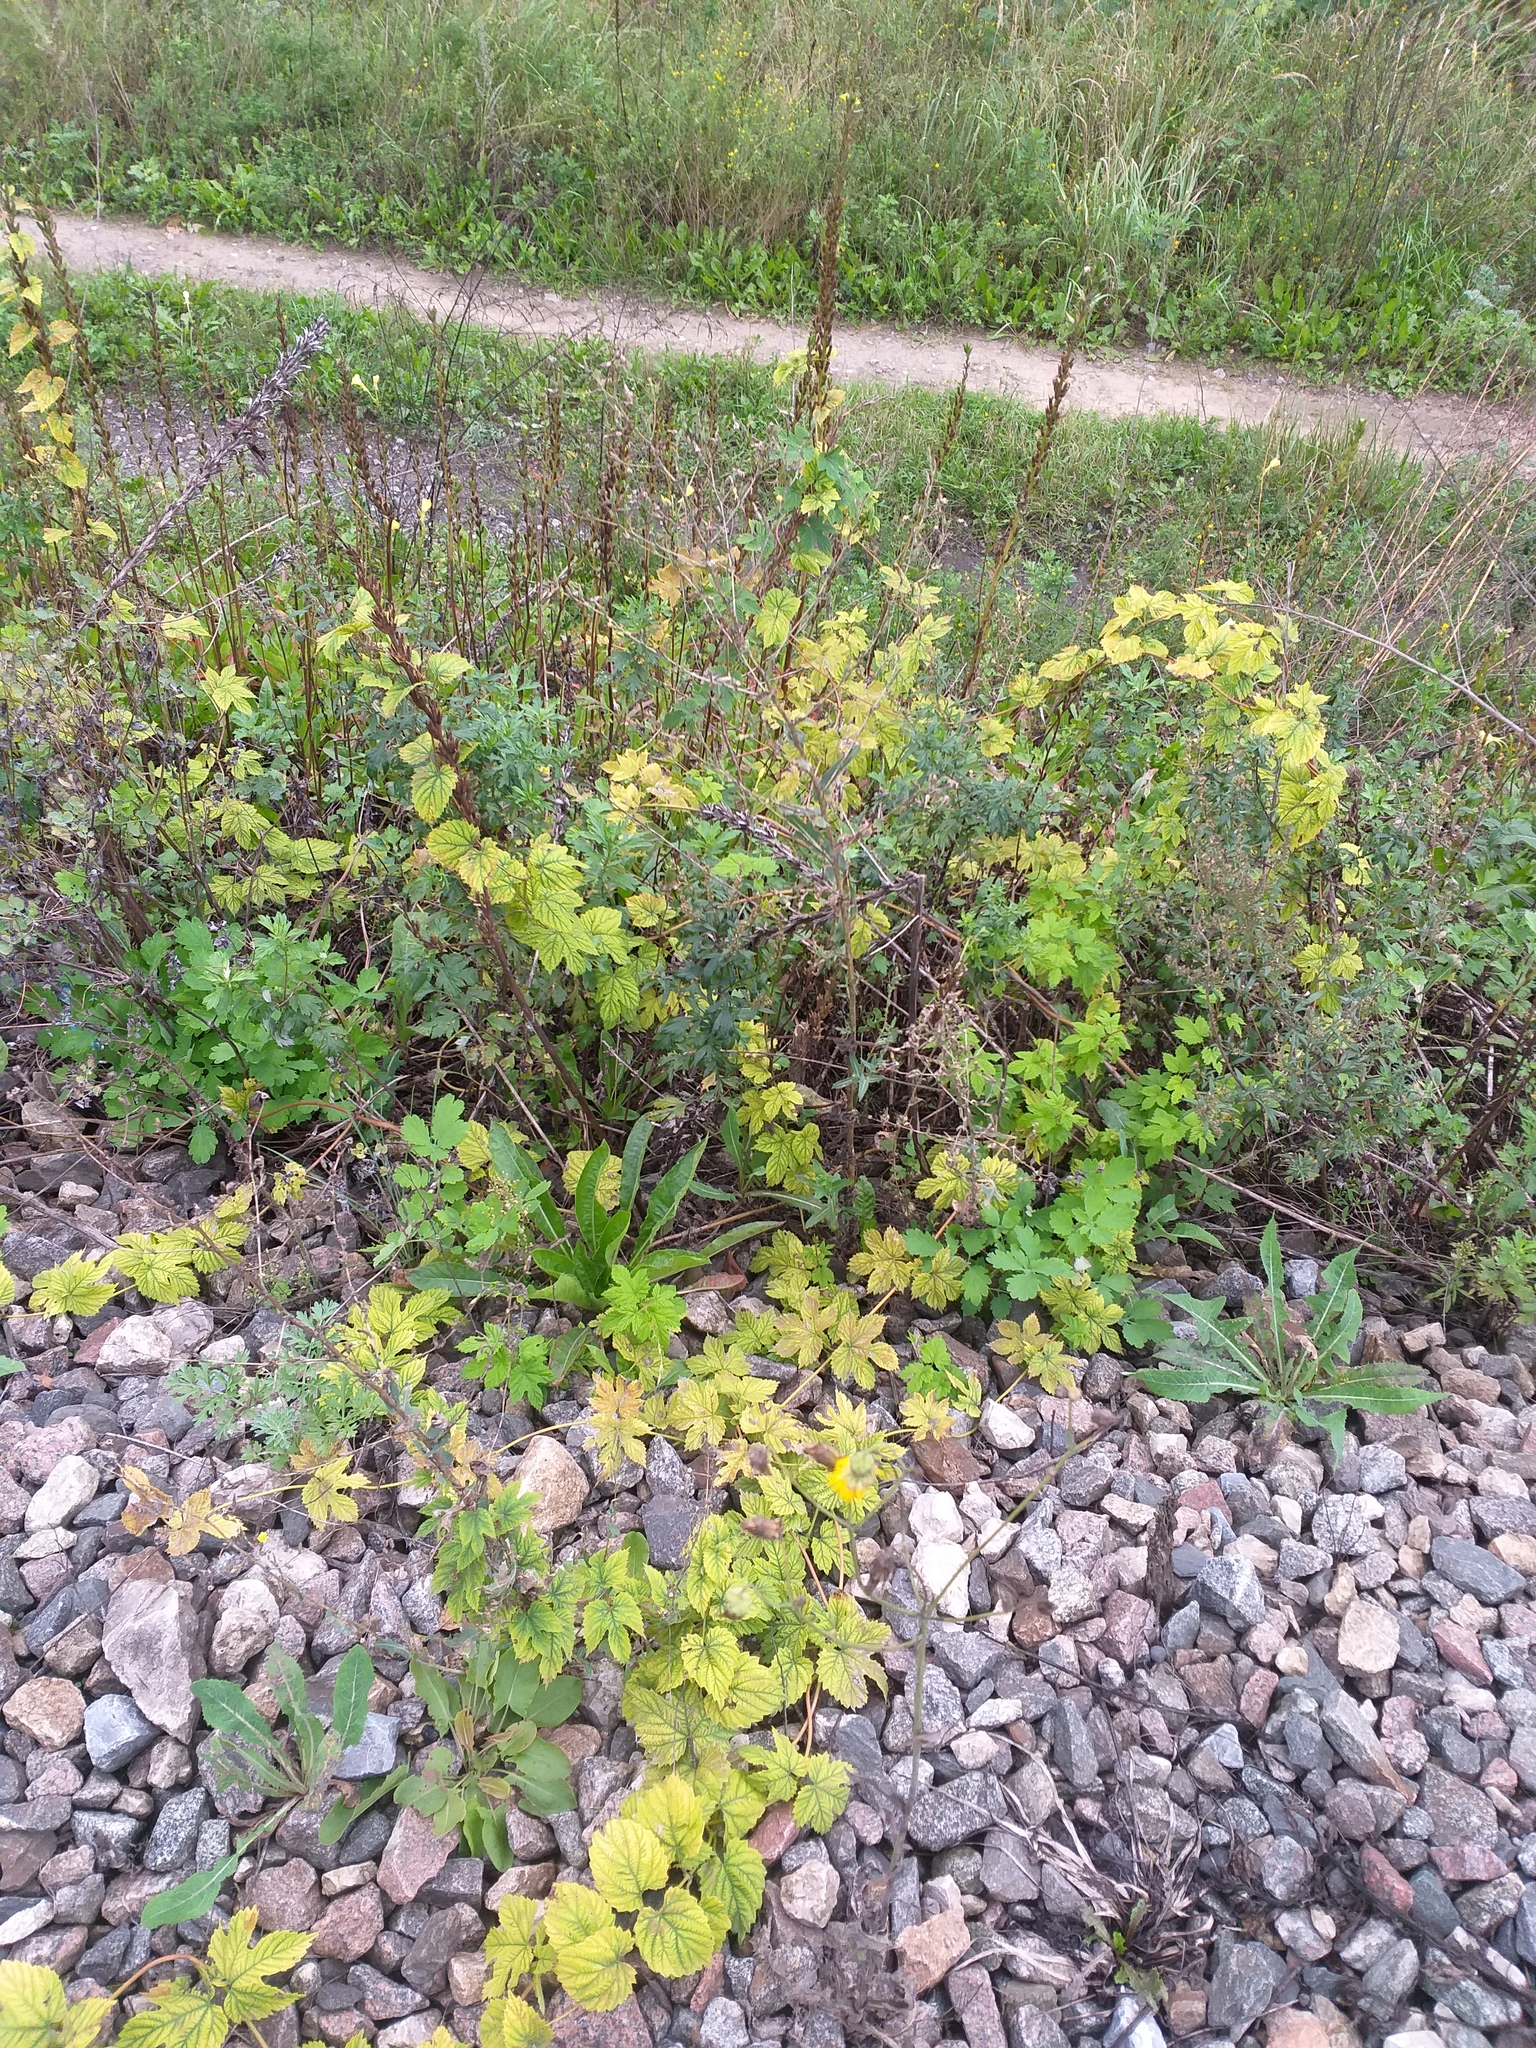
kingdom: Plantae
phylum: Tracheophyta
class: Magnoliopsida
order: Rosales
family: Cannabaceae
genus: Humulus
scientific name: Humulus lupulus
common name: Hop
